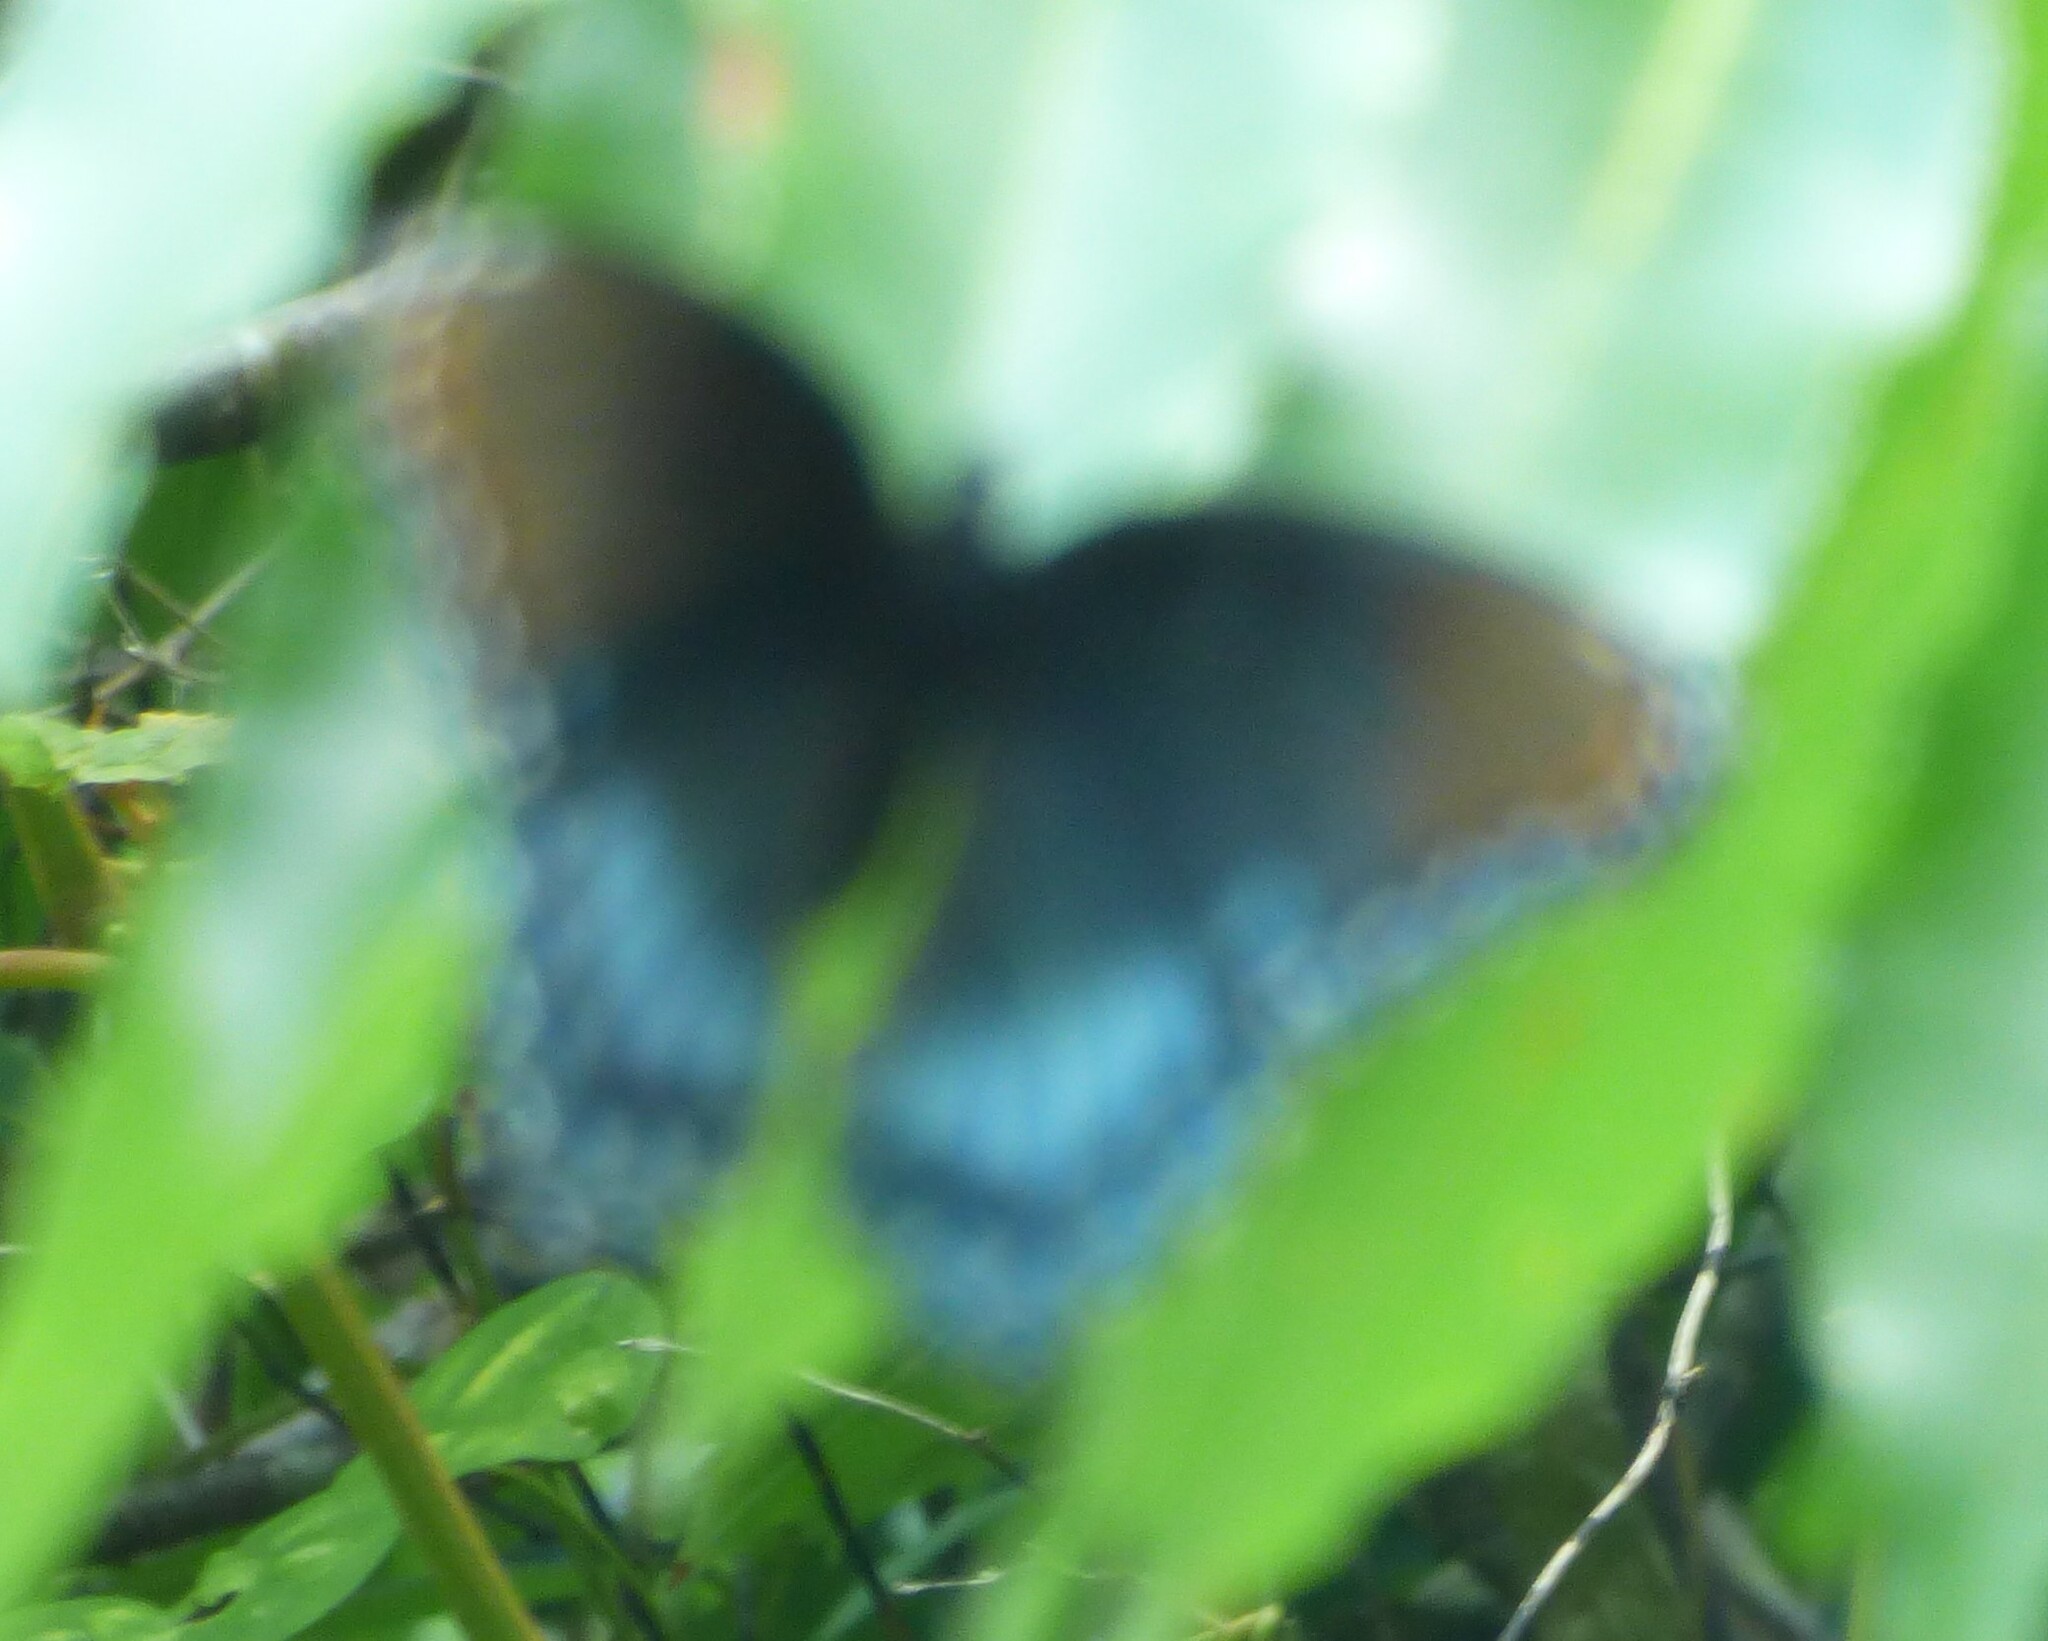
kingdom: Animalia
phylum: Arthropoda
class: Insecta
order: Lepidoptera
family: Nymphalidae
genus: Limenitis
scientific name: Limenitis arthemis
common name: Red-spotted admiral
